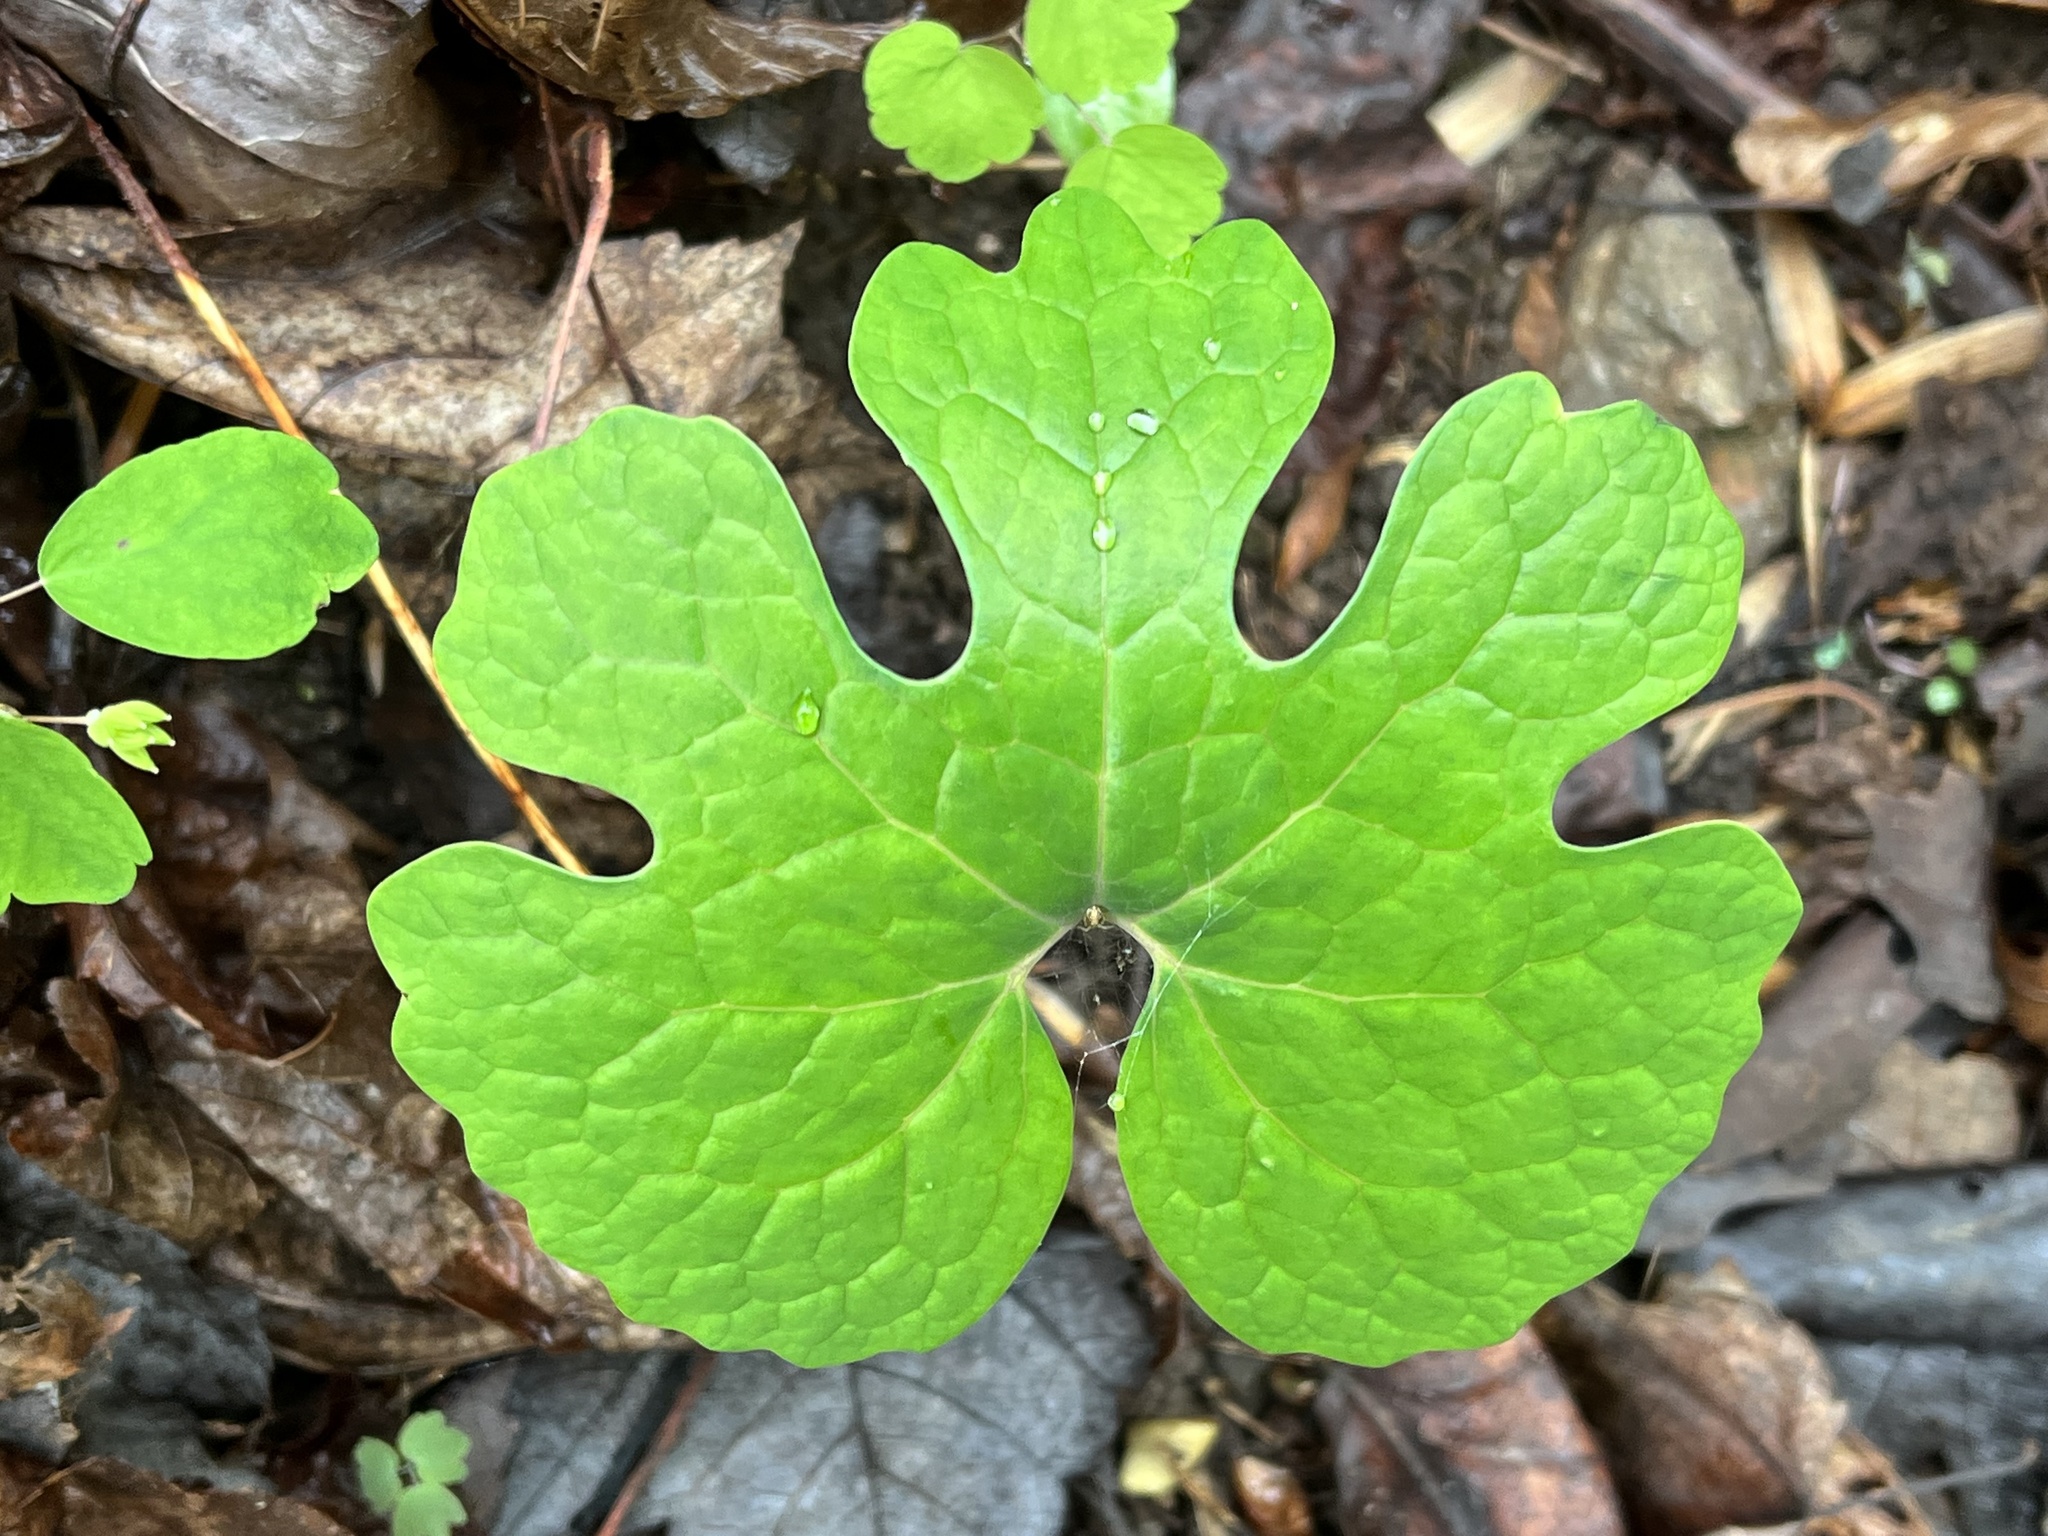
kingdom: Plantae
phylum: Tracheophyta
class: Magnoliopsida
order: Ranunculales
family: Papaveraceae
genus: Sanguinaria
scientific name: Sanguinaria canadensis
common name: Bloodroot
